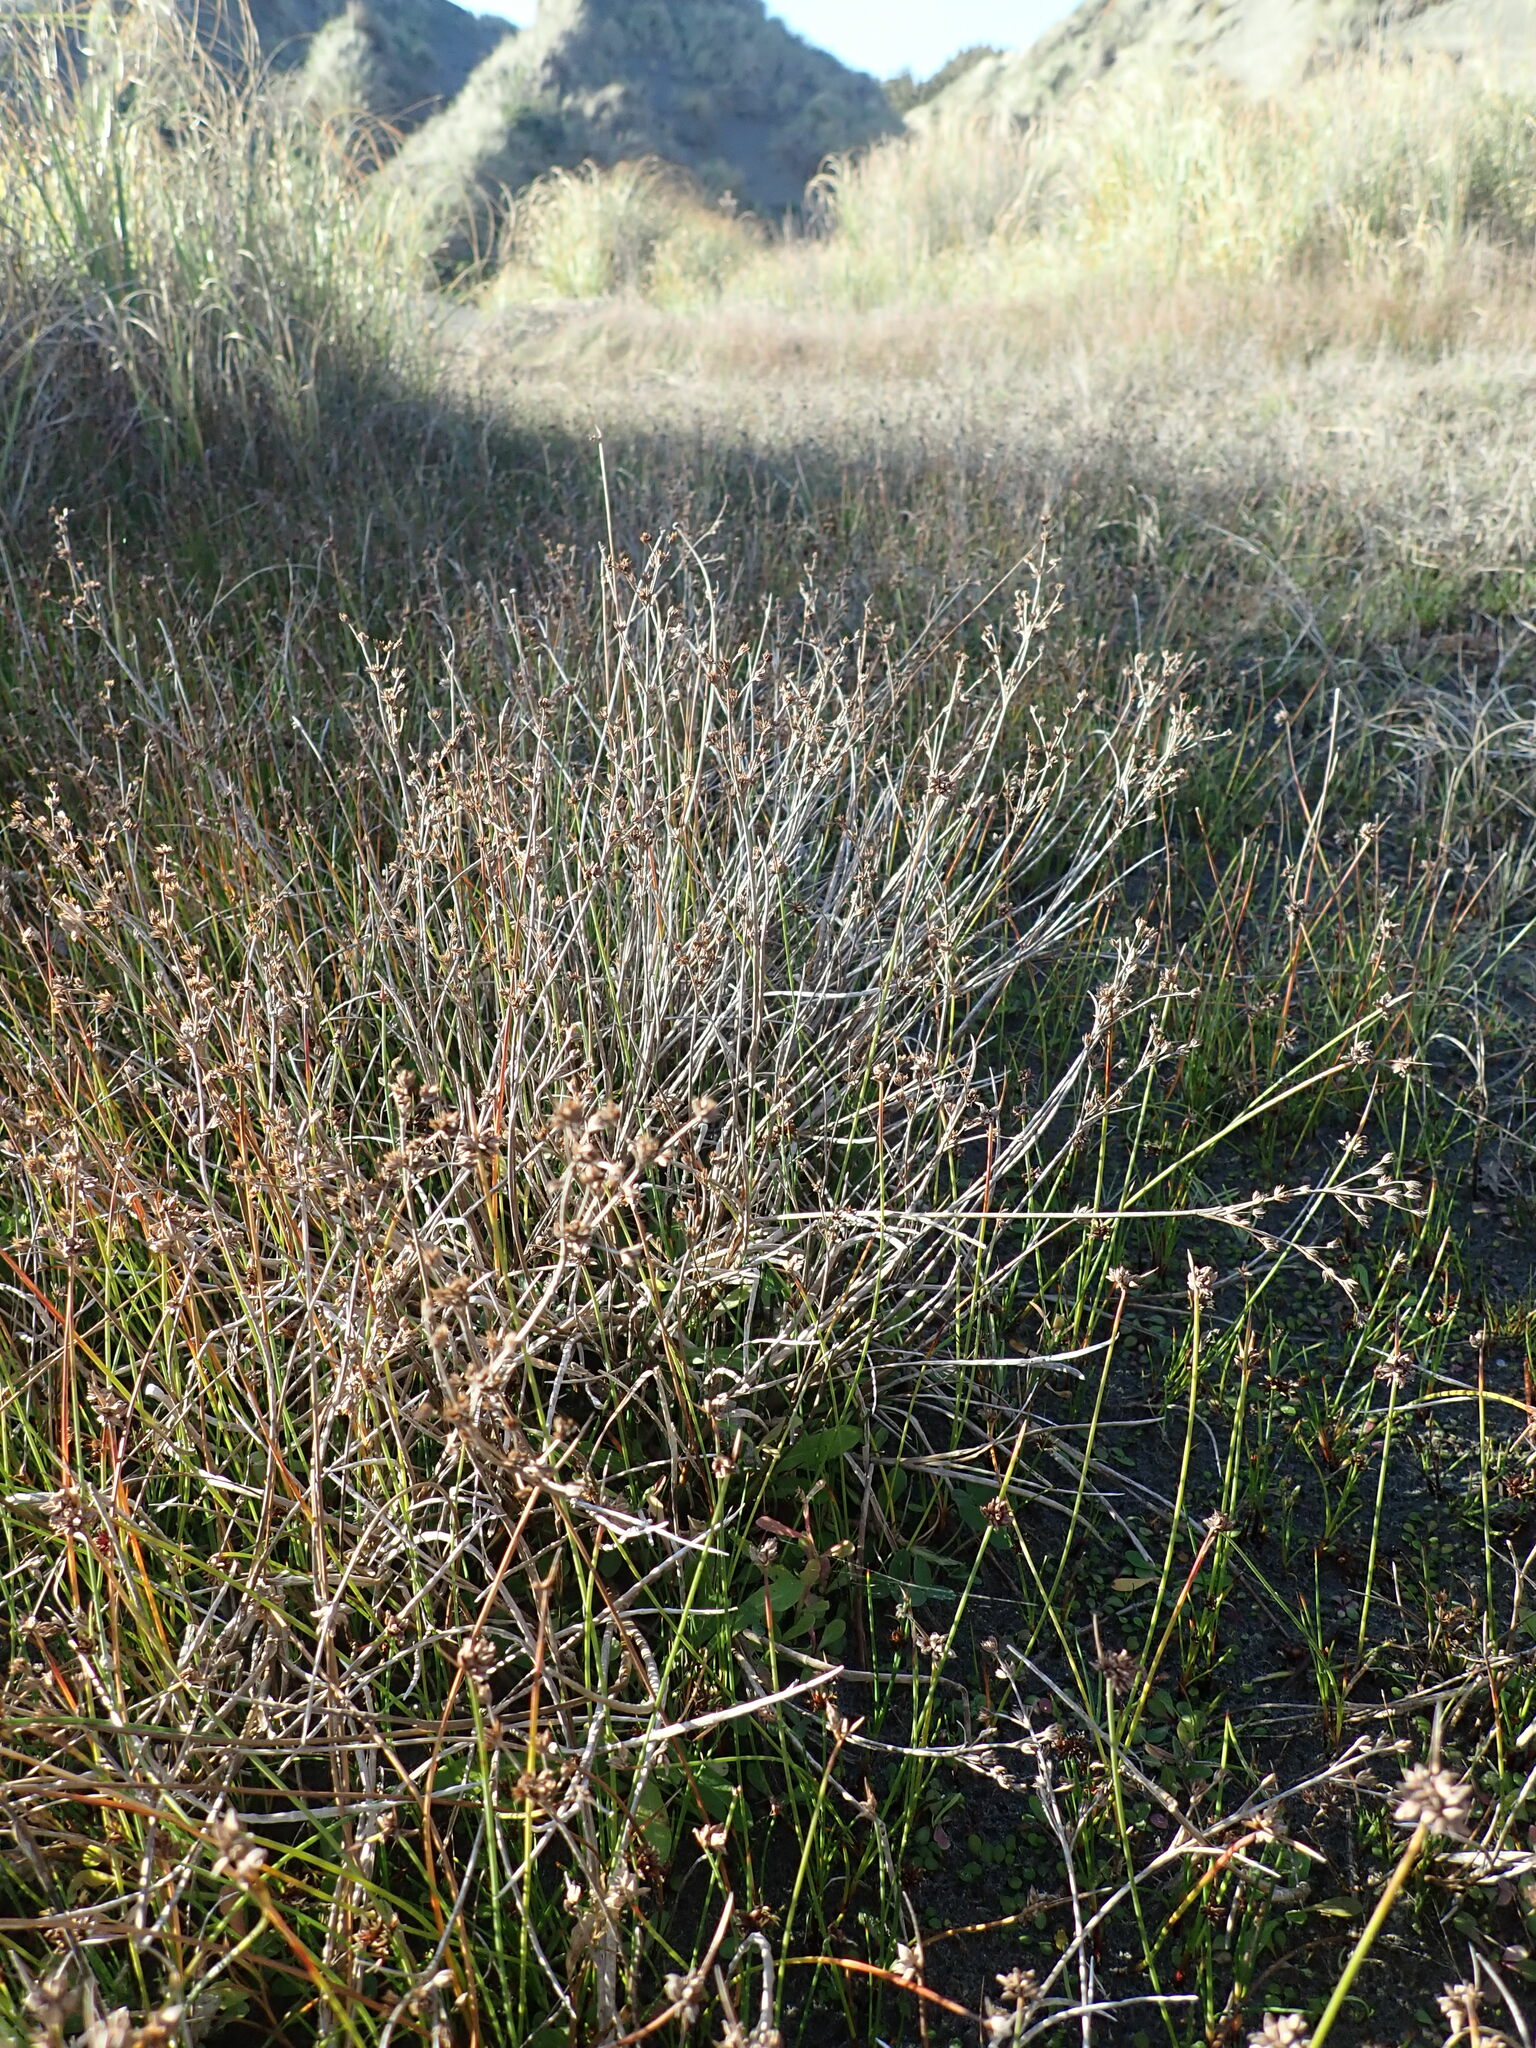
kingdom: Plantae
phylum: Tracheophyta
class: Liliopsida
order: Poales
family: Juncaceae
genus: Juncus
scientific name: Juncus articulatus
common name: Jointed rush
